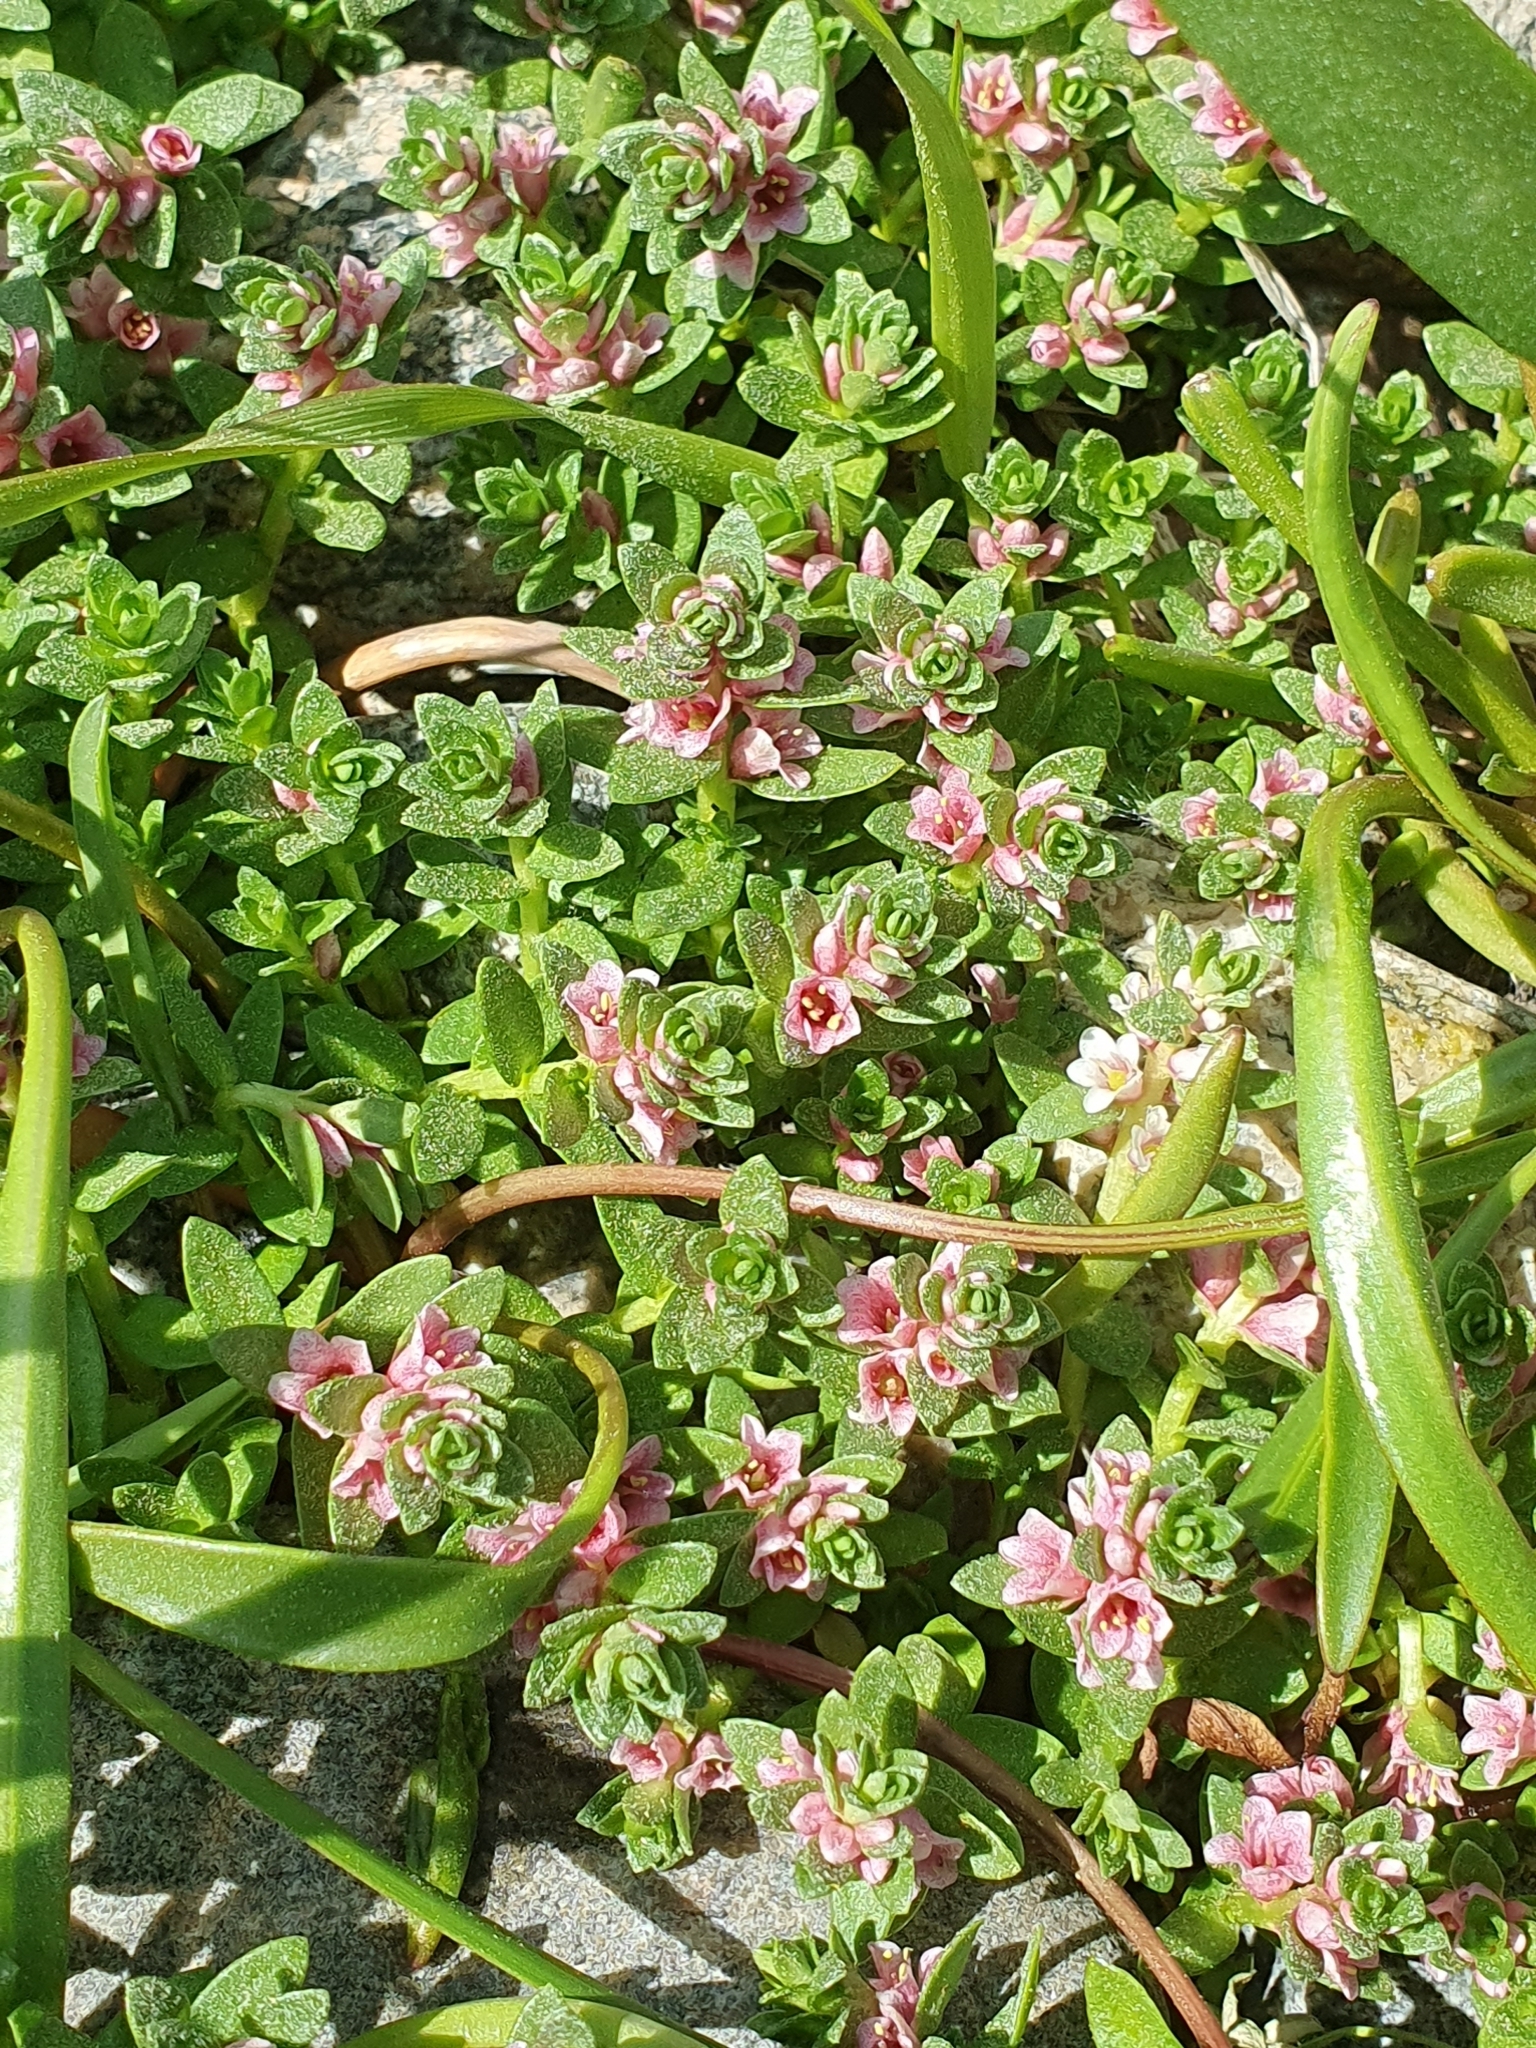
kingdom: Plantae
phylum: Tracheophyta
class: Magnoliopsida
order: Ericales
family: Primulaceae
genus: Lysimachia
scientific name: Lysimachia maritima
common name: Sea milkwort
